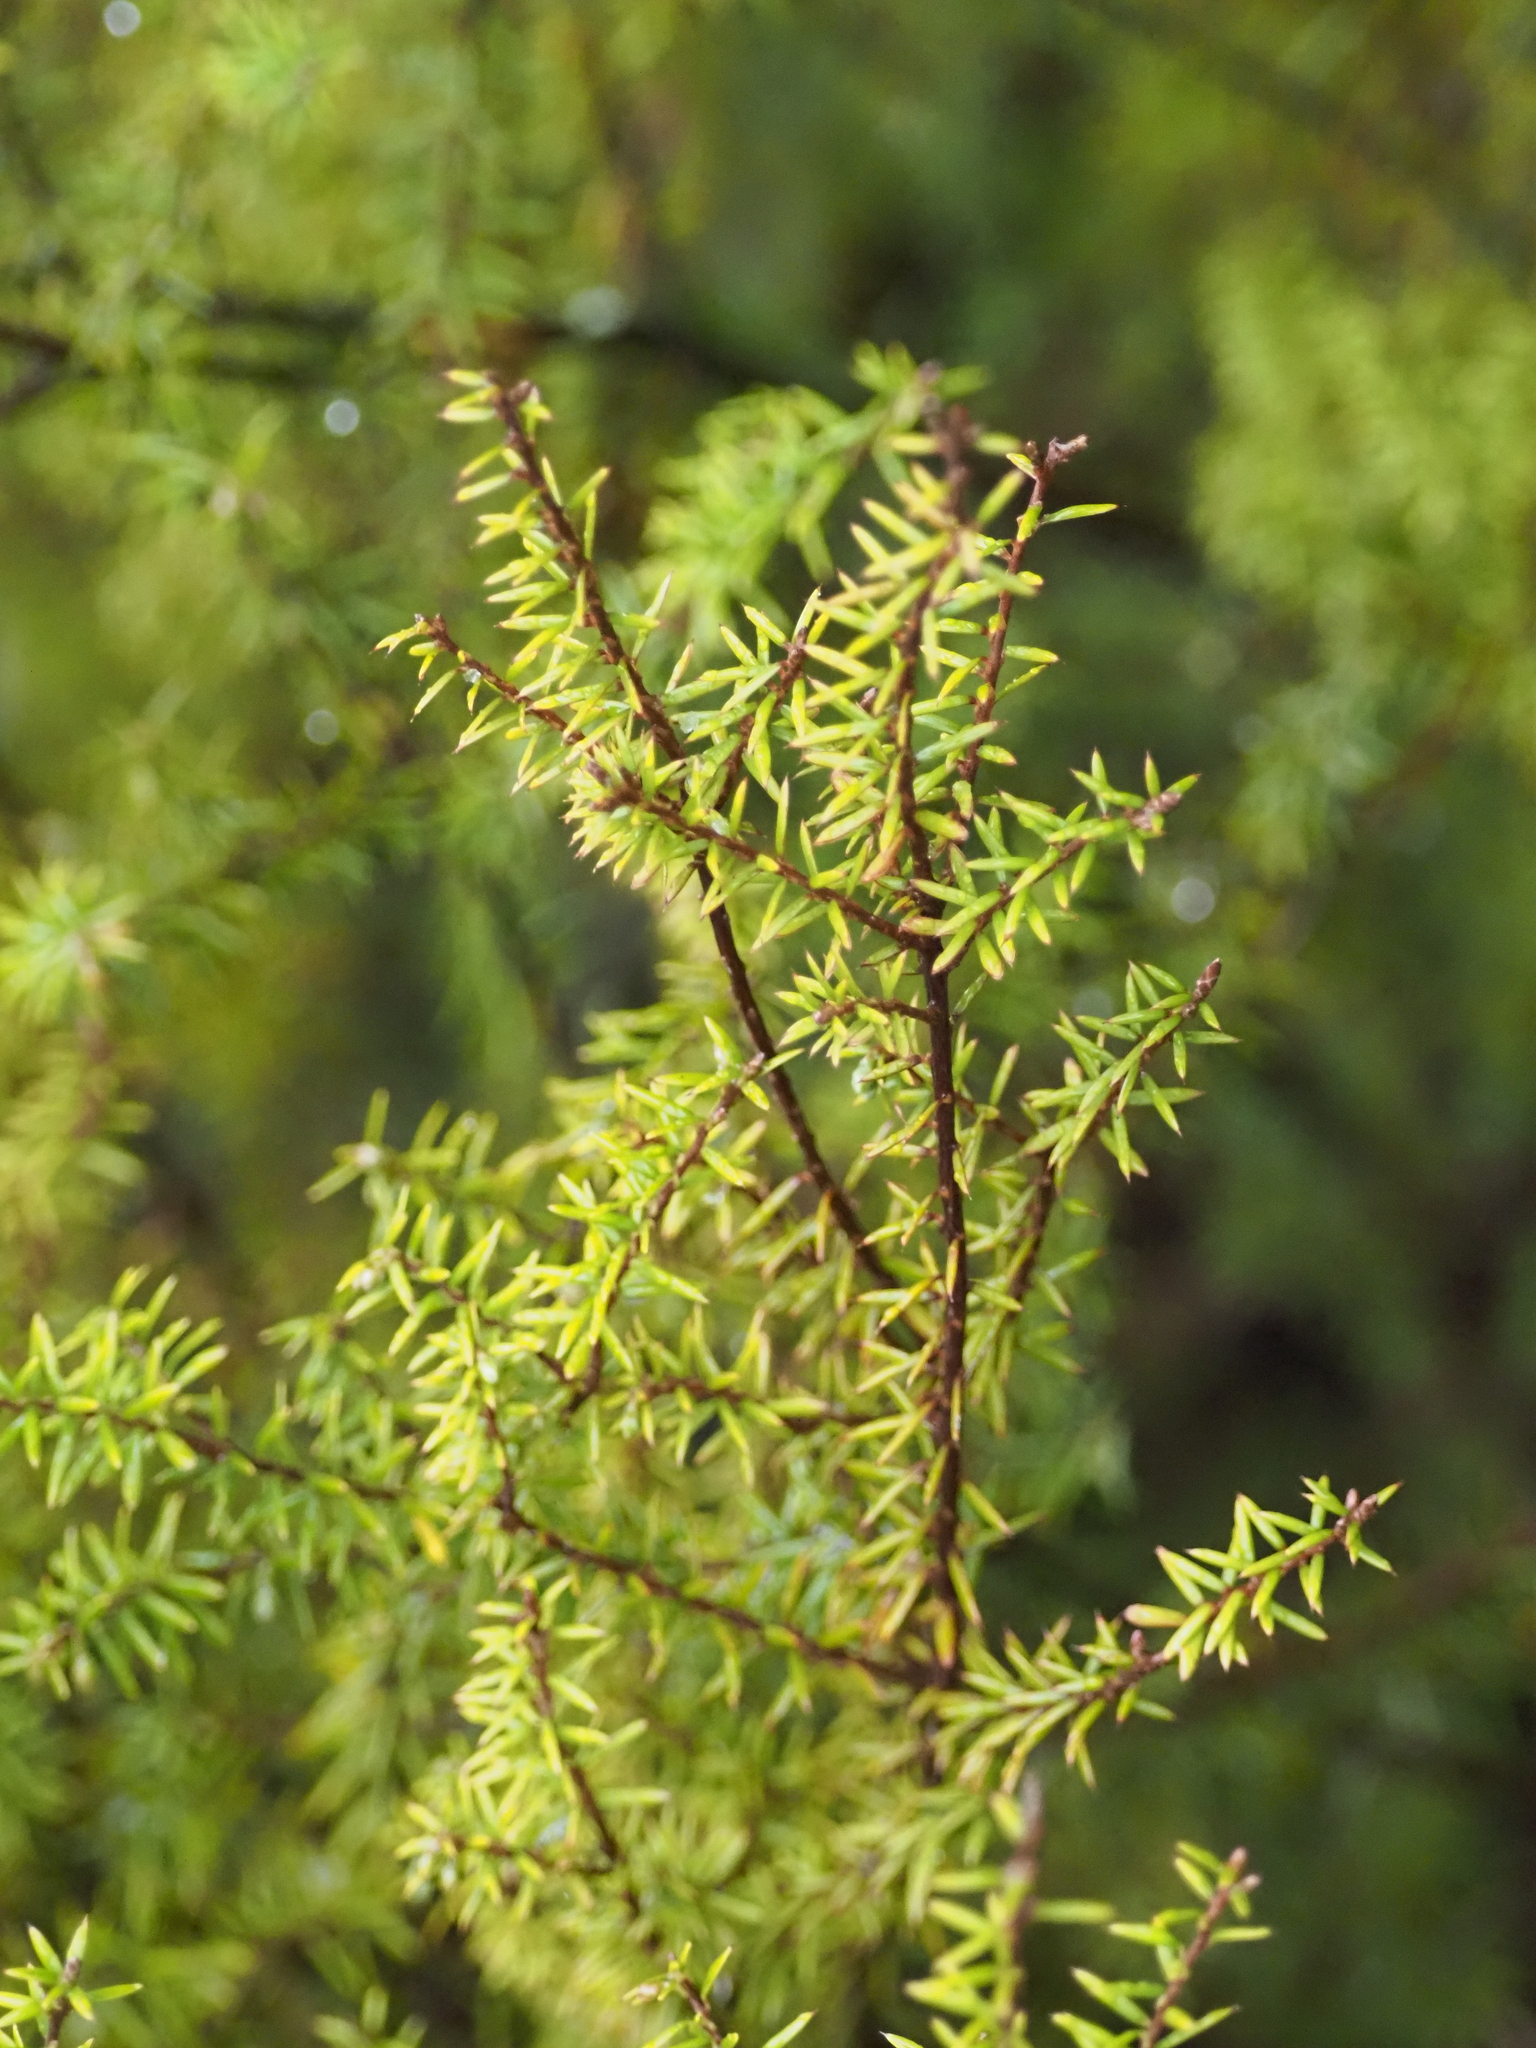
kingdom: Plantae
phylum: Tracheophyta
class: Magnoliopsida
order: Ericales
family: Ericaceae
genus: Leptecophylla
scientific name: Leptecophylla juniperina
